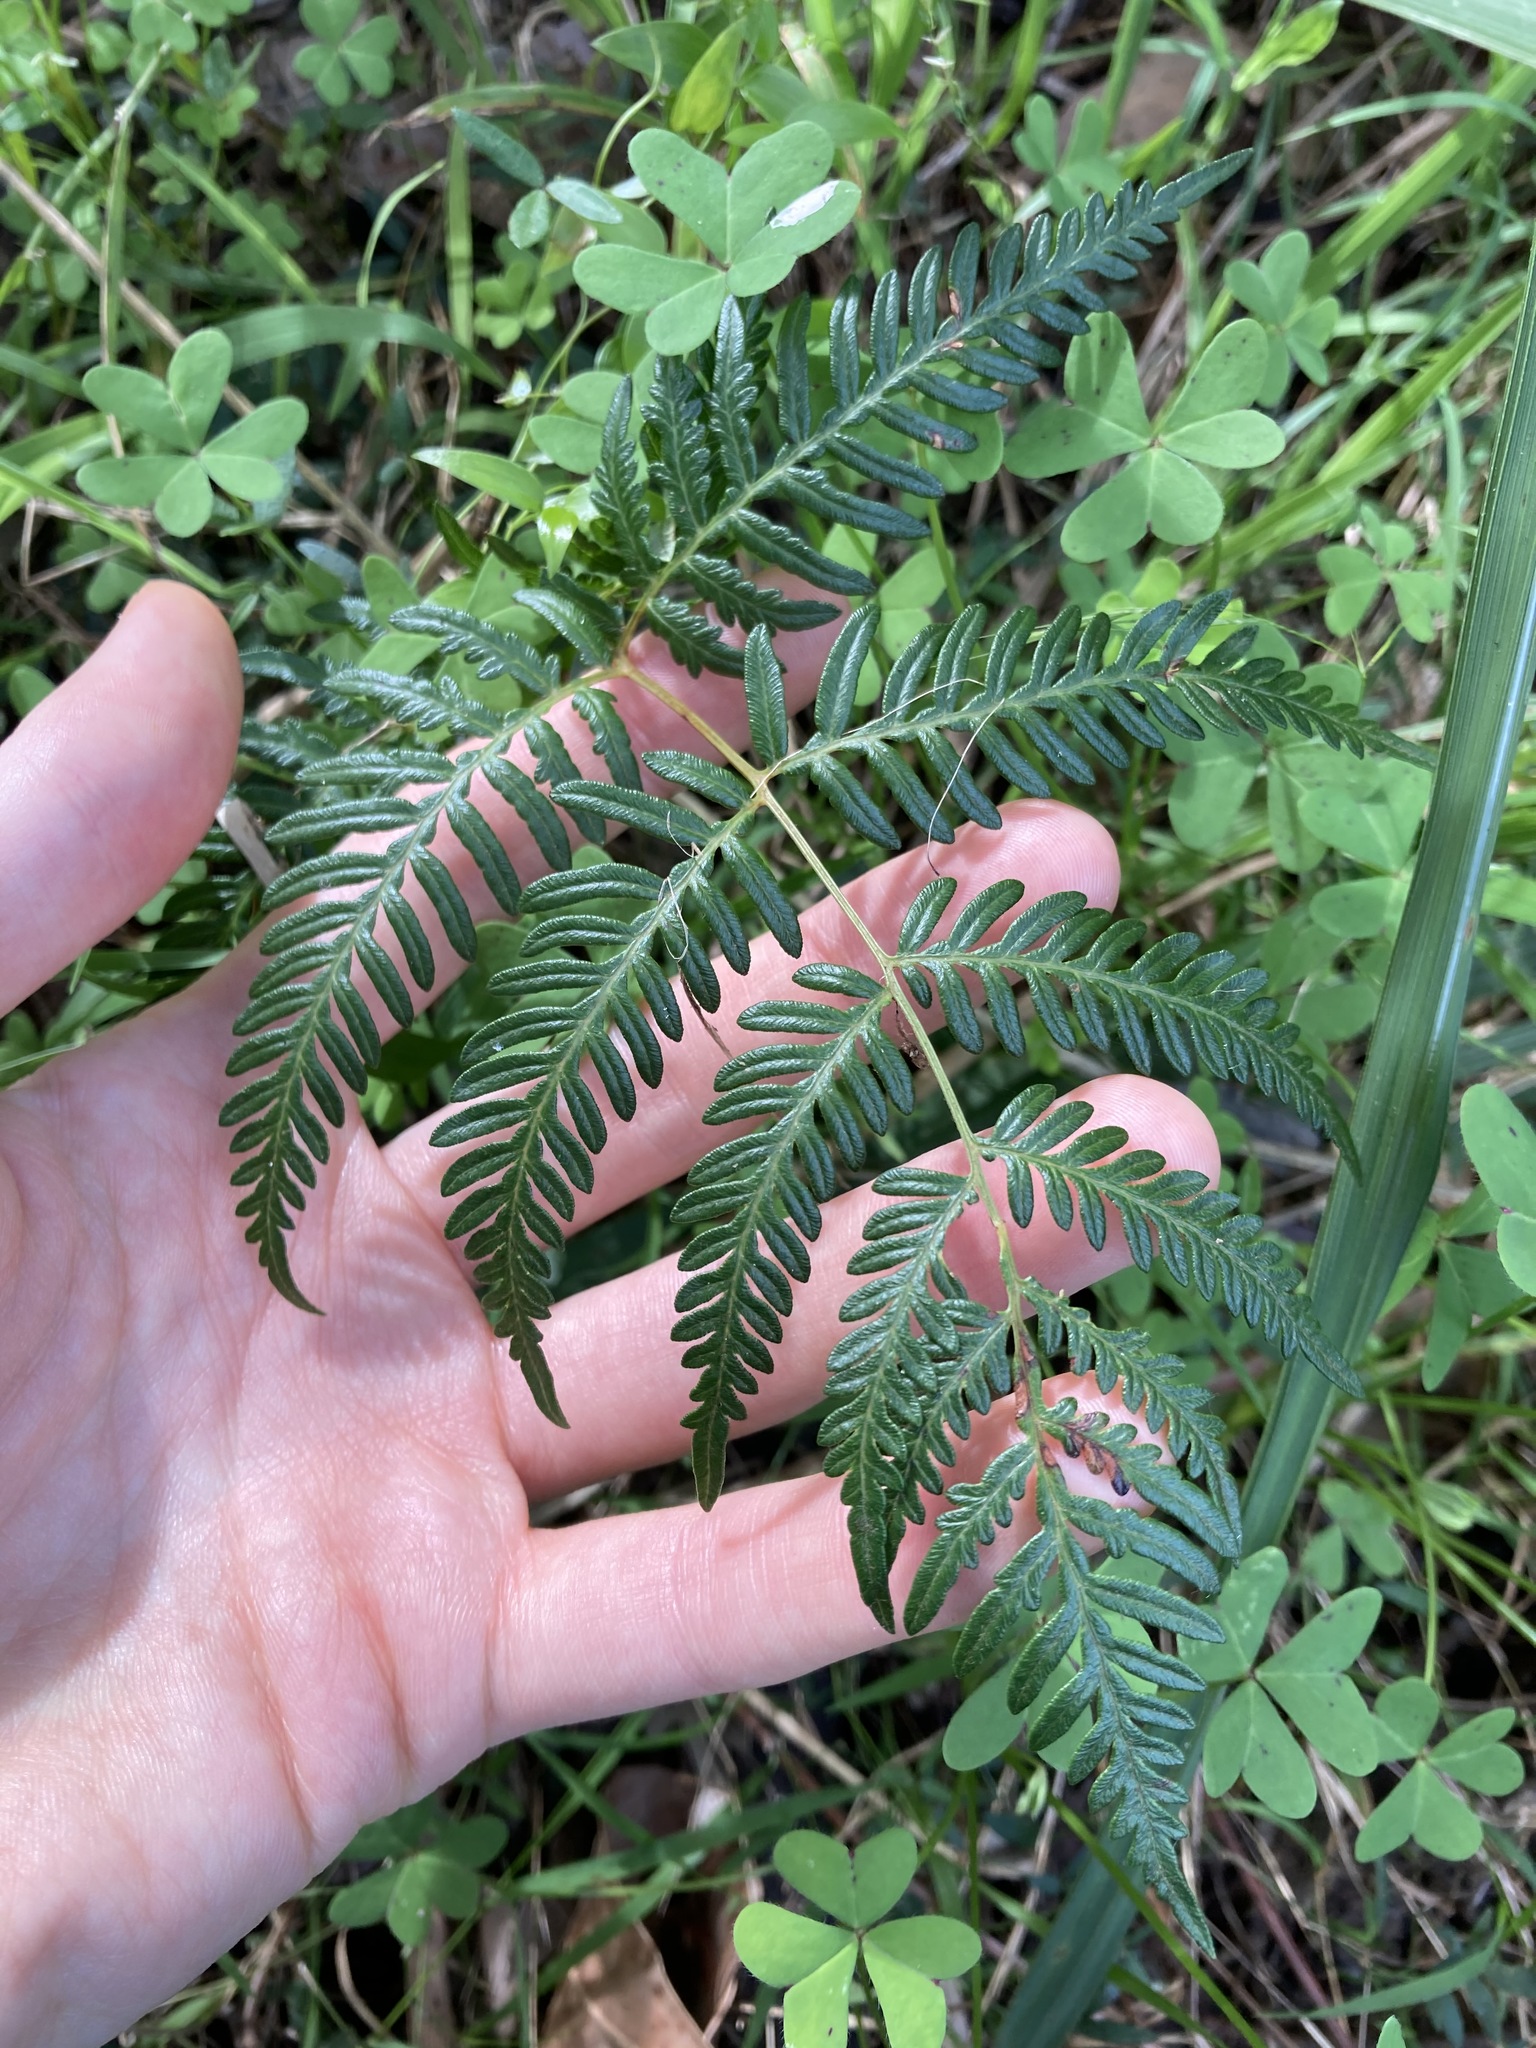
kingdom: Plantae
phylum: Tracheophyta
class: Polypodiopsida
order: Polypodiales
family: Dennstaedtiaceae
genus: Pteridium
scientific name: Pteridium esculentum
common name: Bracken fern
